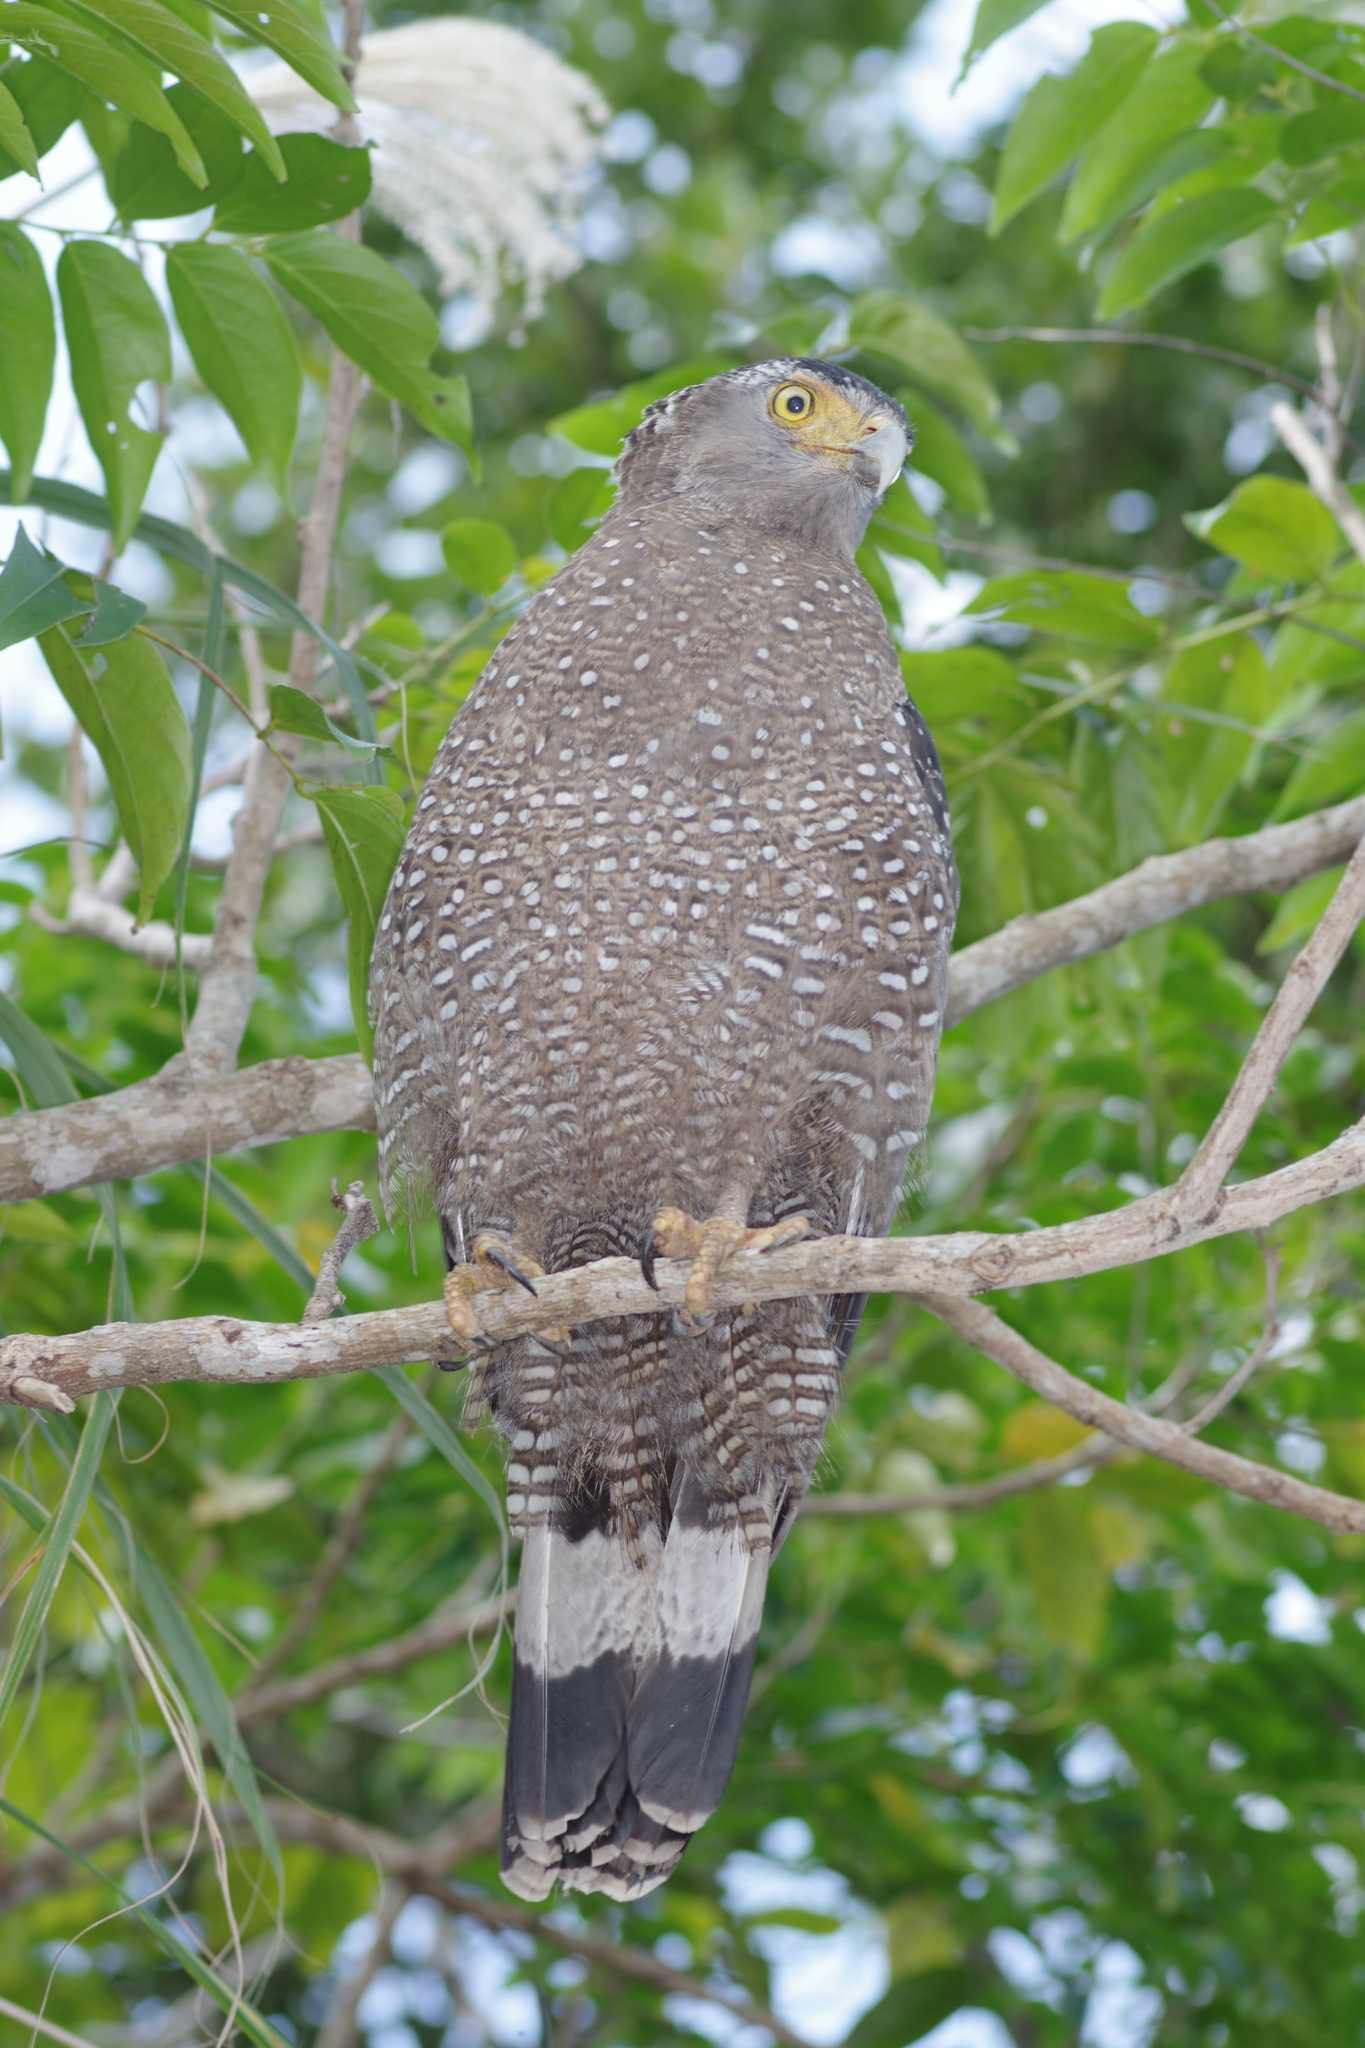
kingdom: Animalia
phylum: Chordata
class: Aves
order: Accipitriformes
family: Accipitridae
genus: Spilornis
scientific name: Spilornis cheela
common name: Crested serpent eagle
